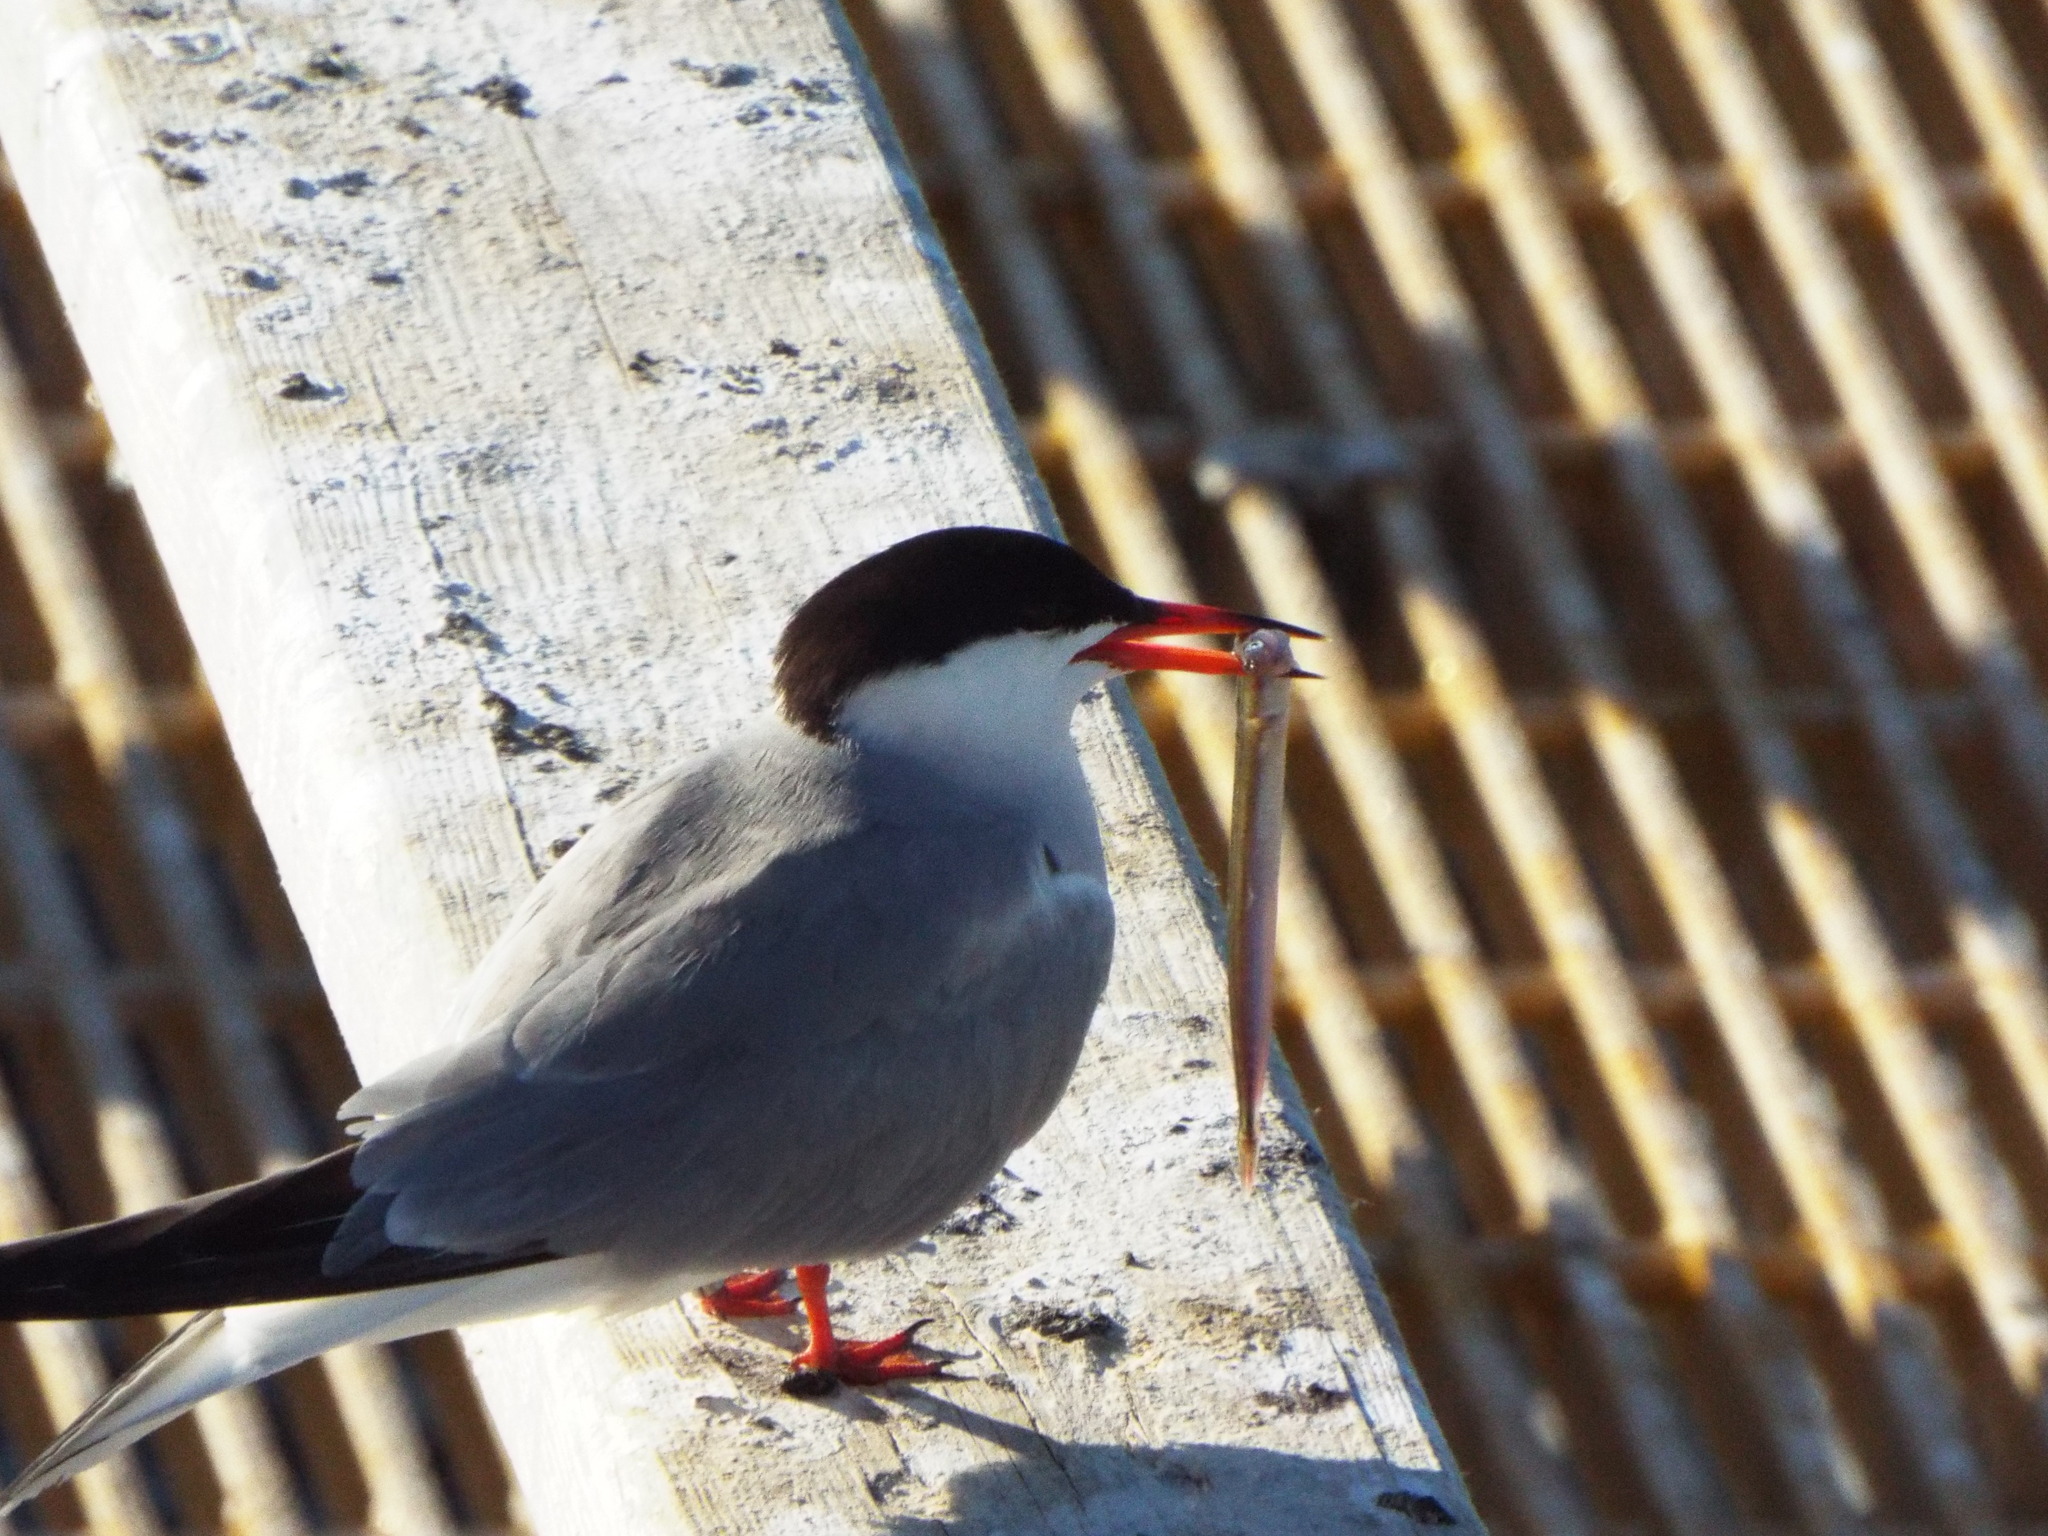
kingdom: Animalia
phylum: Chordata
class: Aves
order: Charadriiformes
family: Laridae
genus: Sterna
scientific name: Sterna hirundo
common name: Common tern
